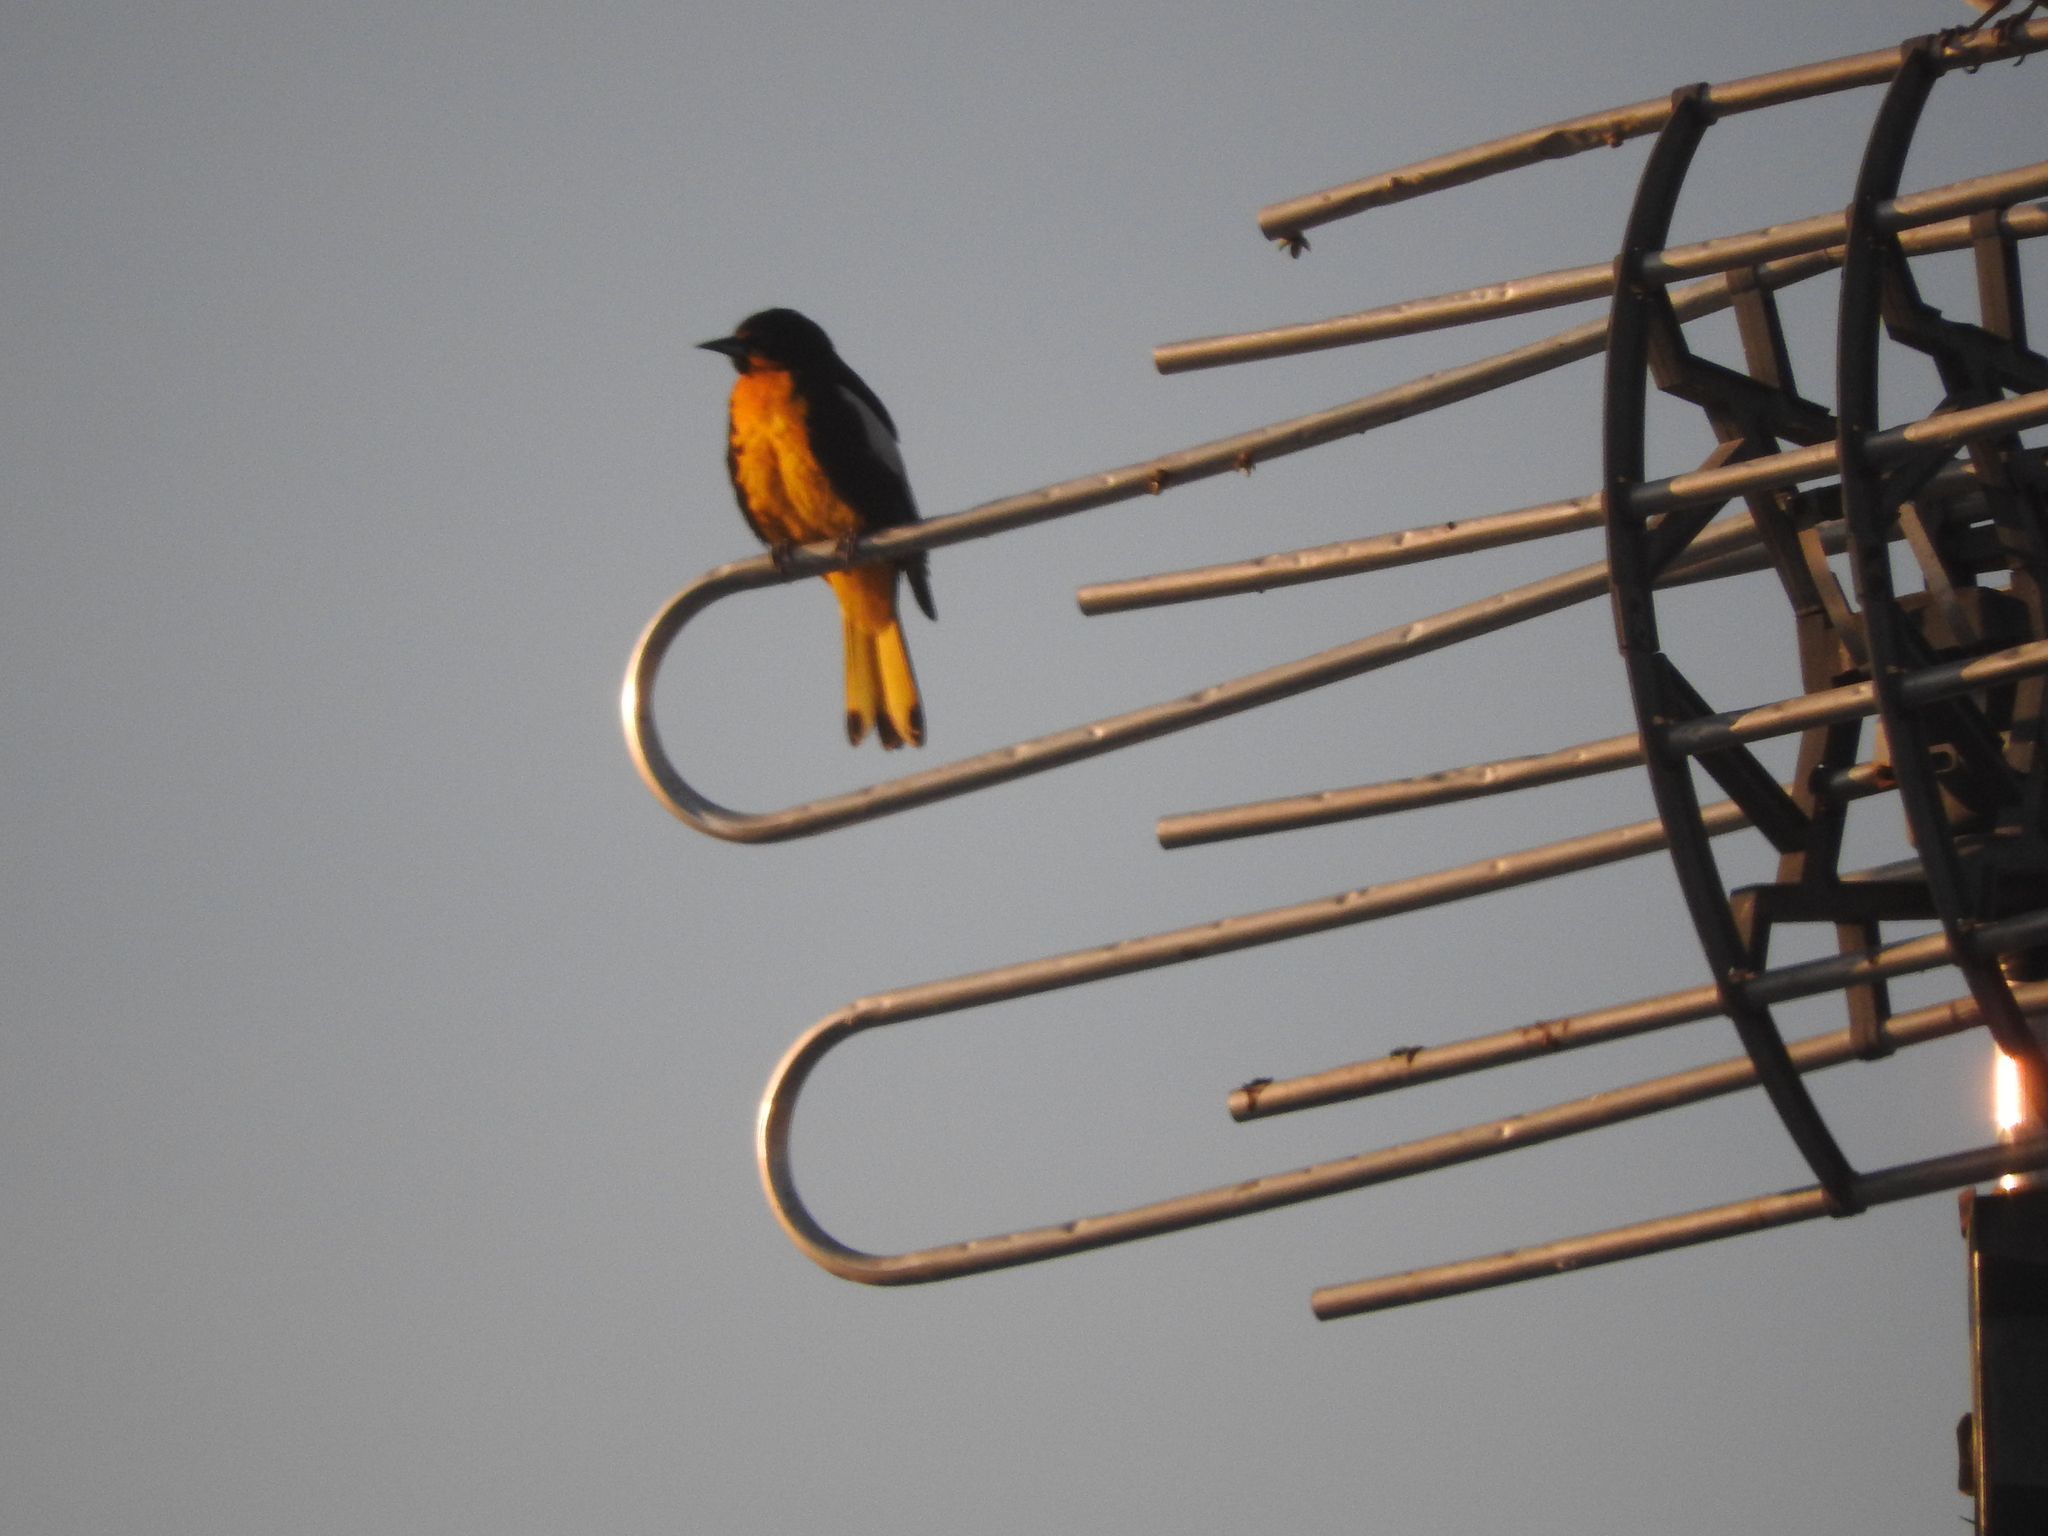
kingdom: Animalia
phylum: Chordata
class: Aves
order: Passeriformes
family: Icteridae
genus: Icterus
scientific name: Icterus abeillei
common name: Black-backed oriole
